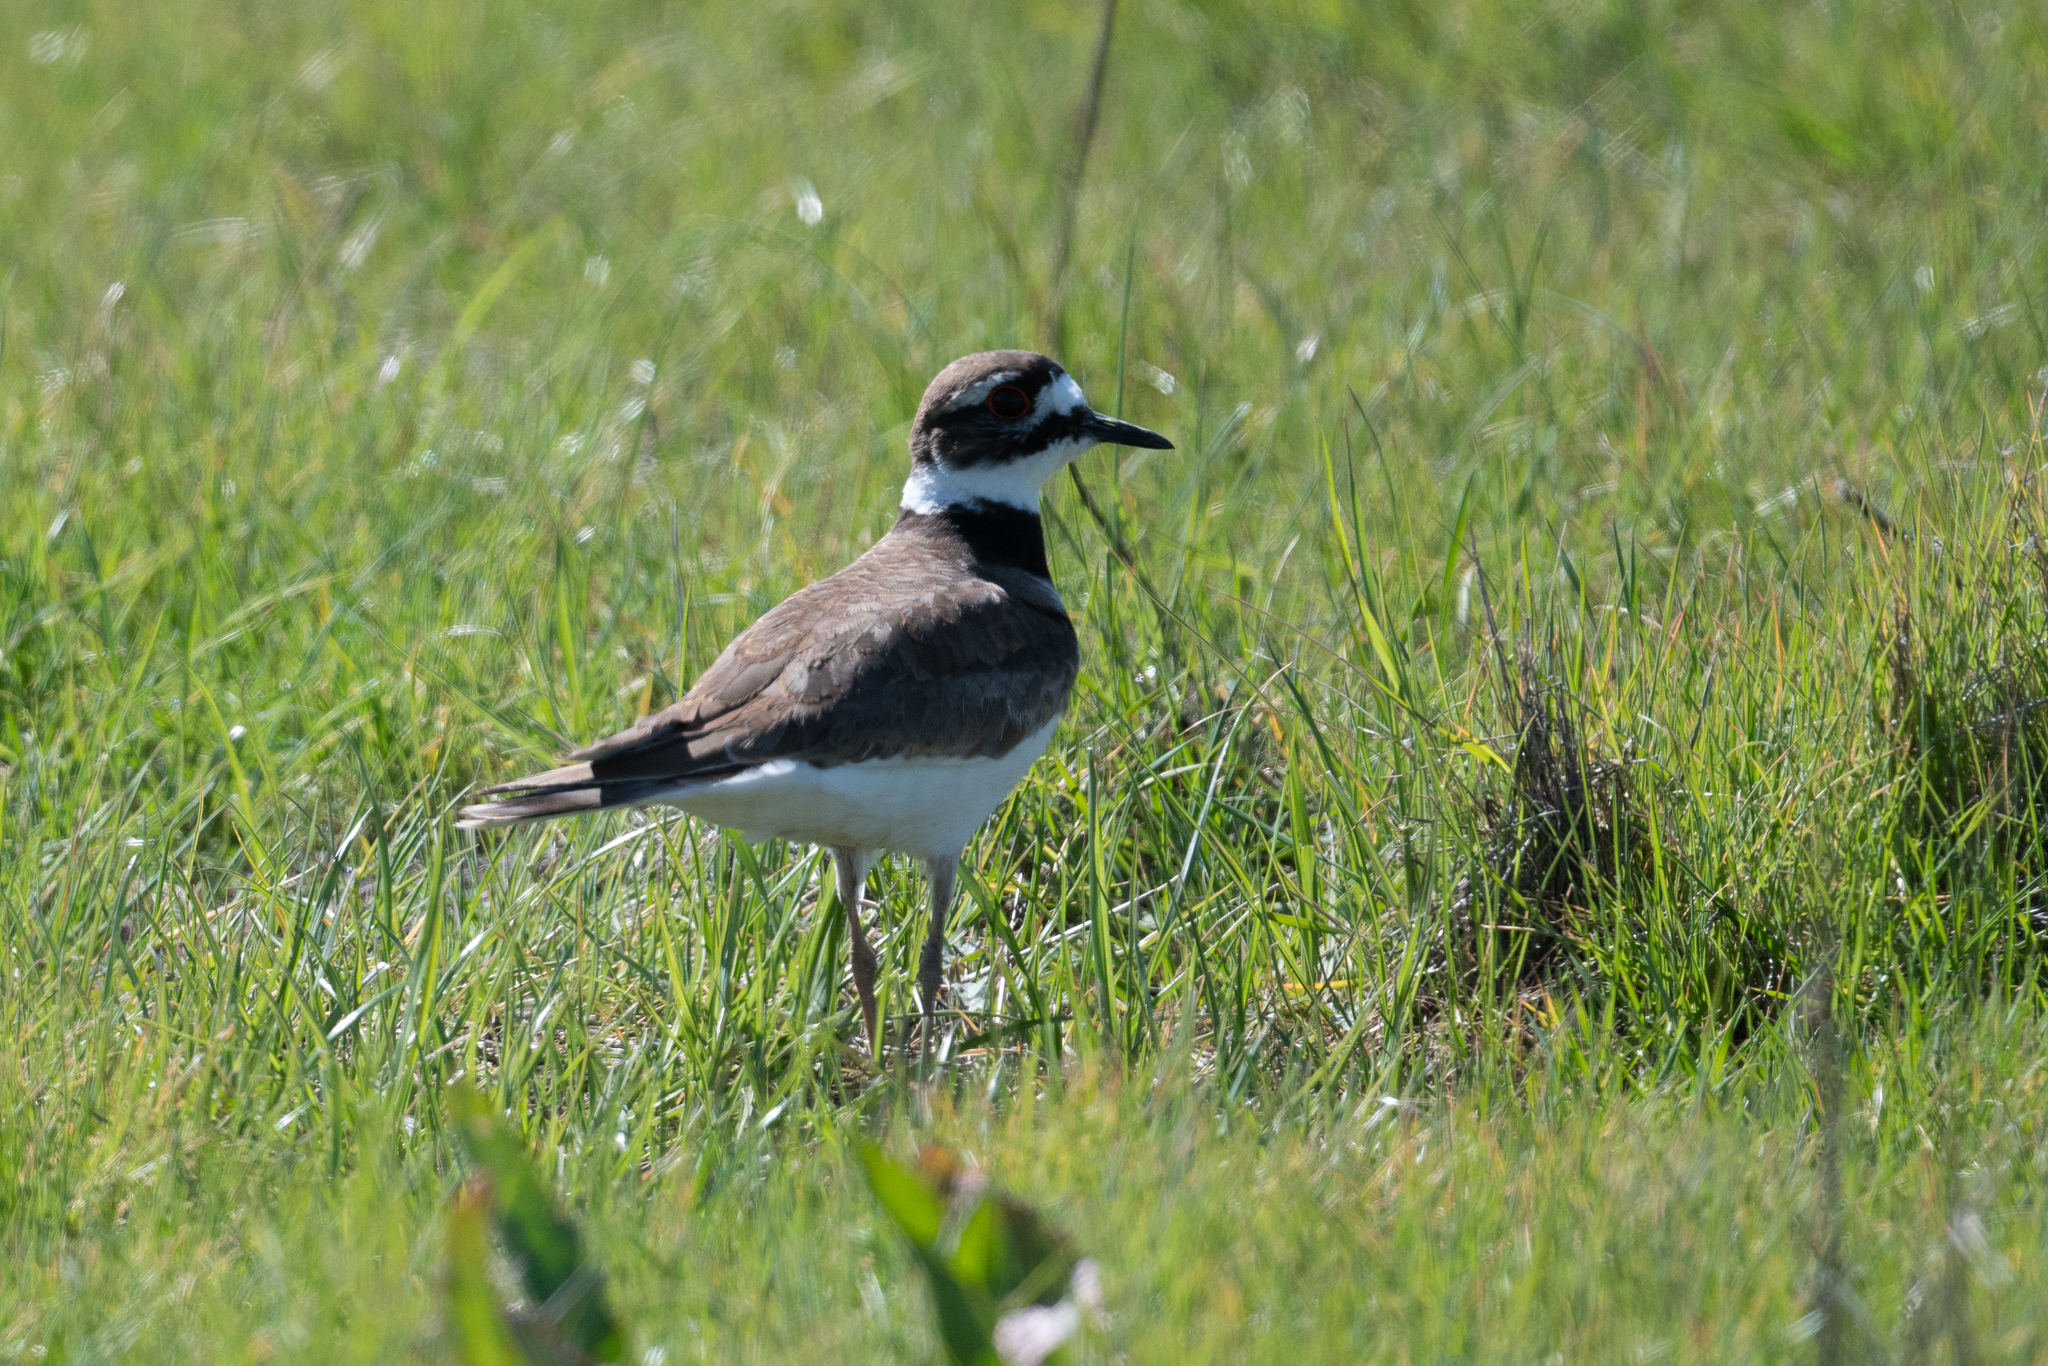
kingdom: Animalia
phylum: Chordata
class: Aves
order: Charadriiformes
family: Charadriidae
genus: Charadrius
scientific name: Charadrius vociferus
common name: Killdeer
